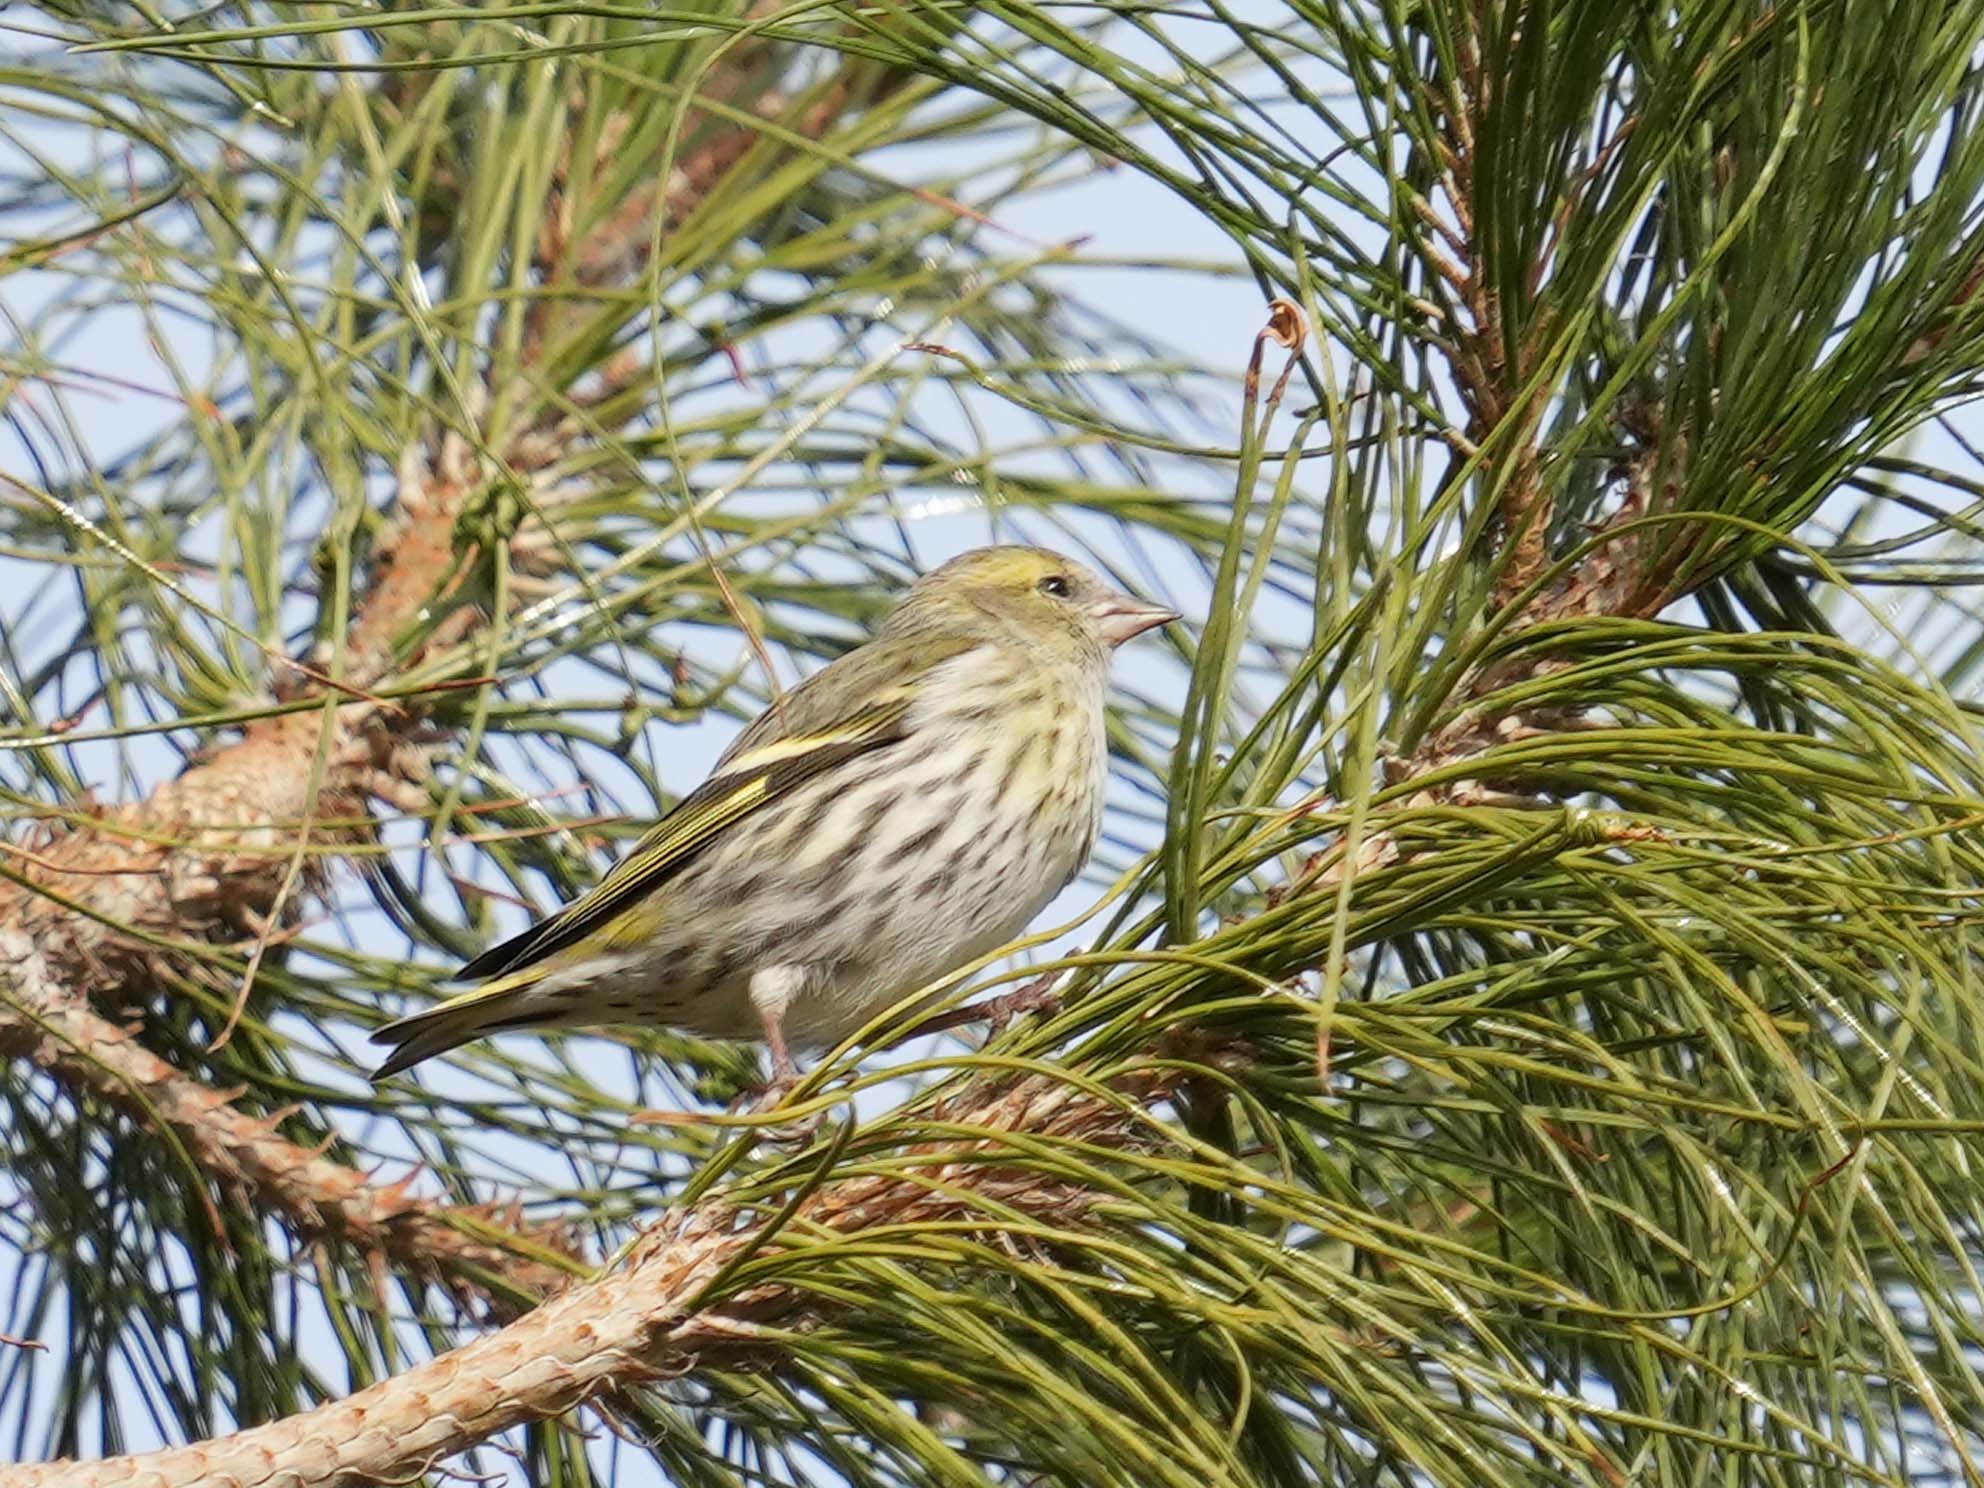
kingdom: Animalia
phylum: Chordata
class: Aves
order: Passeriformes
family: Fringillidae
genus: Spinus
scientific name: Spinus spinus
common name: Eurasian siskin
